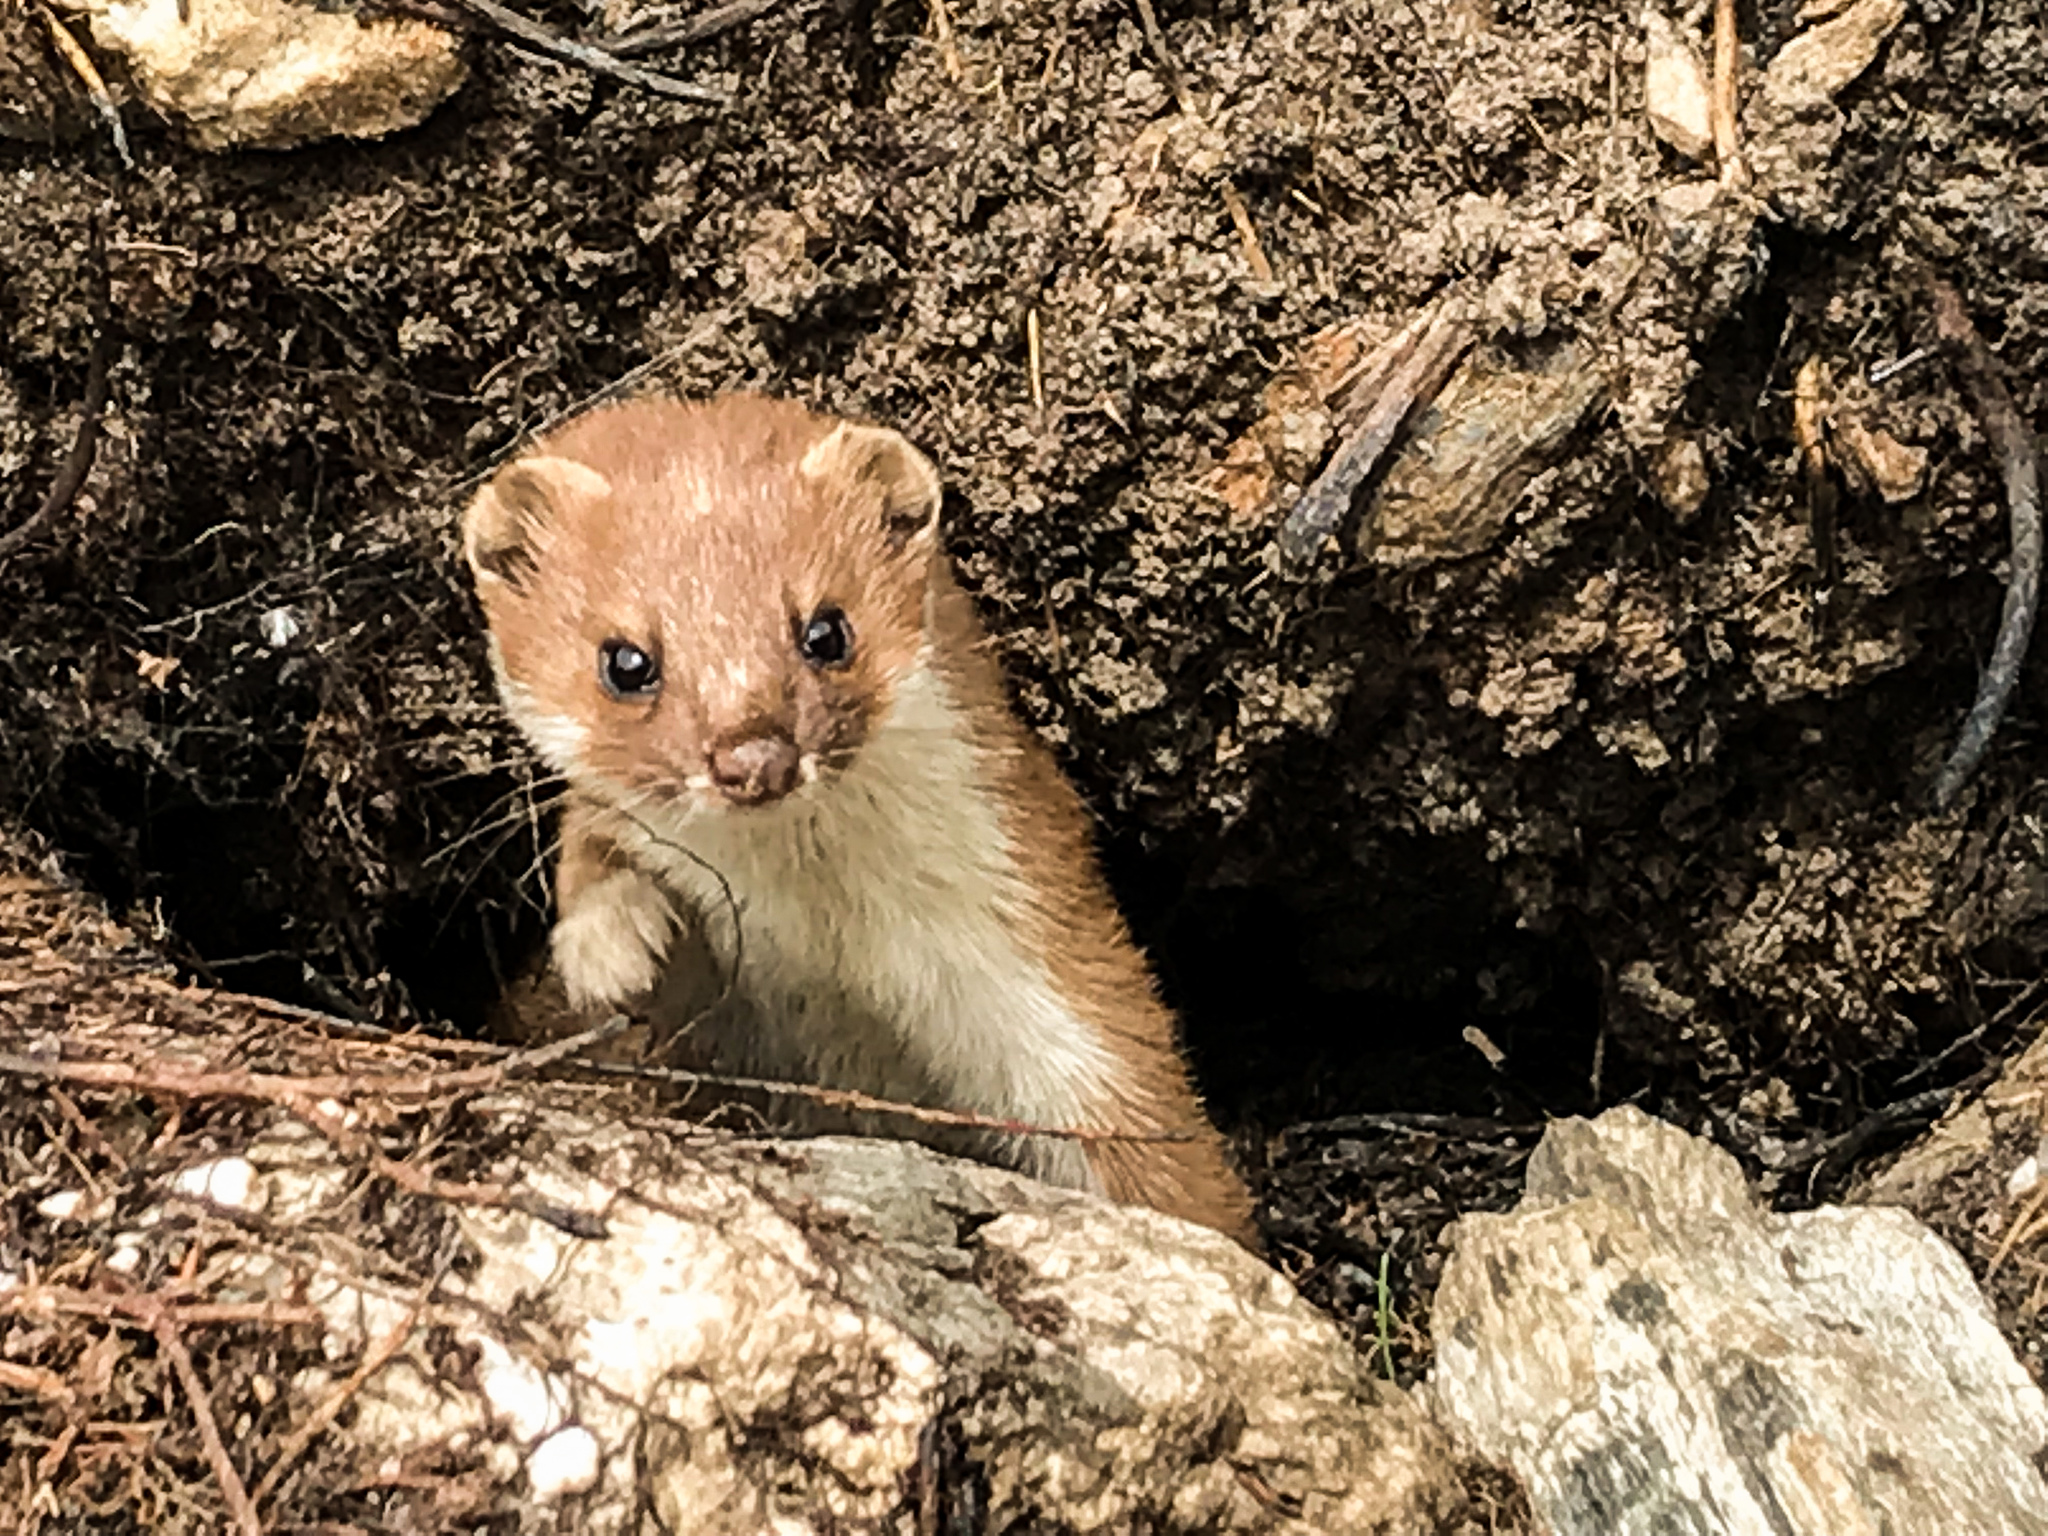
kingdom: Animalia
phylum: Chordata
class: Mammalia
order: Carnivora
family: Mustelidae
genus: Mustela
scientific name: Mustela erminea
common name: Stoat
